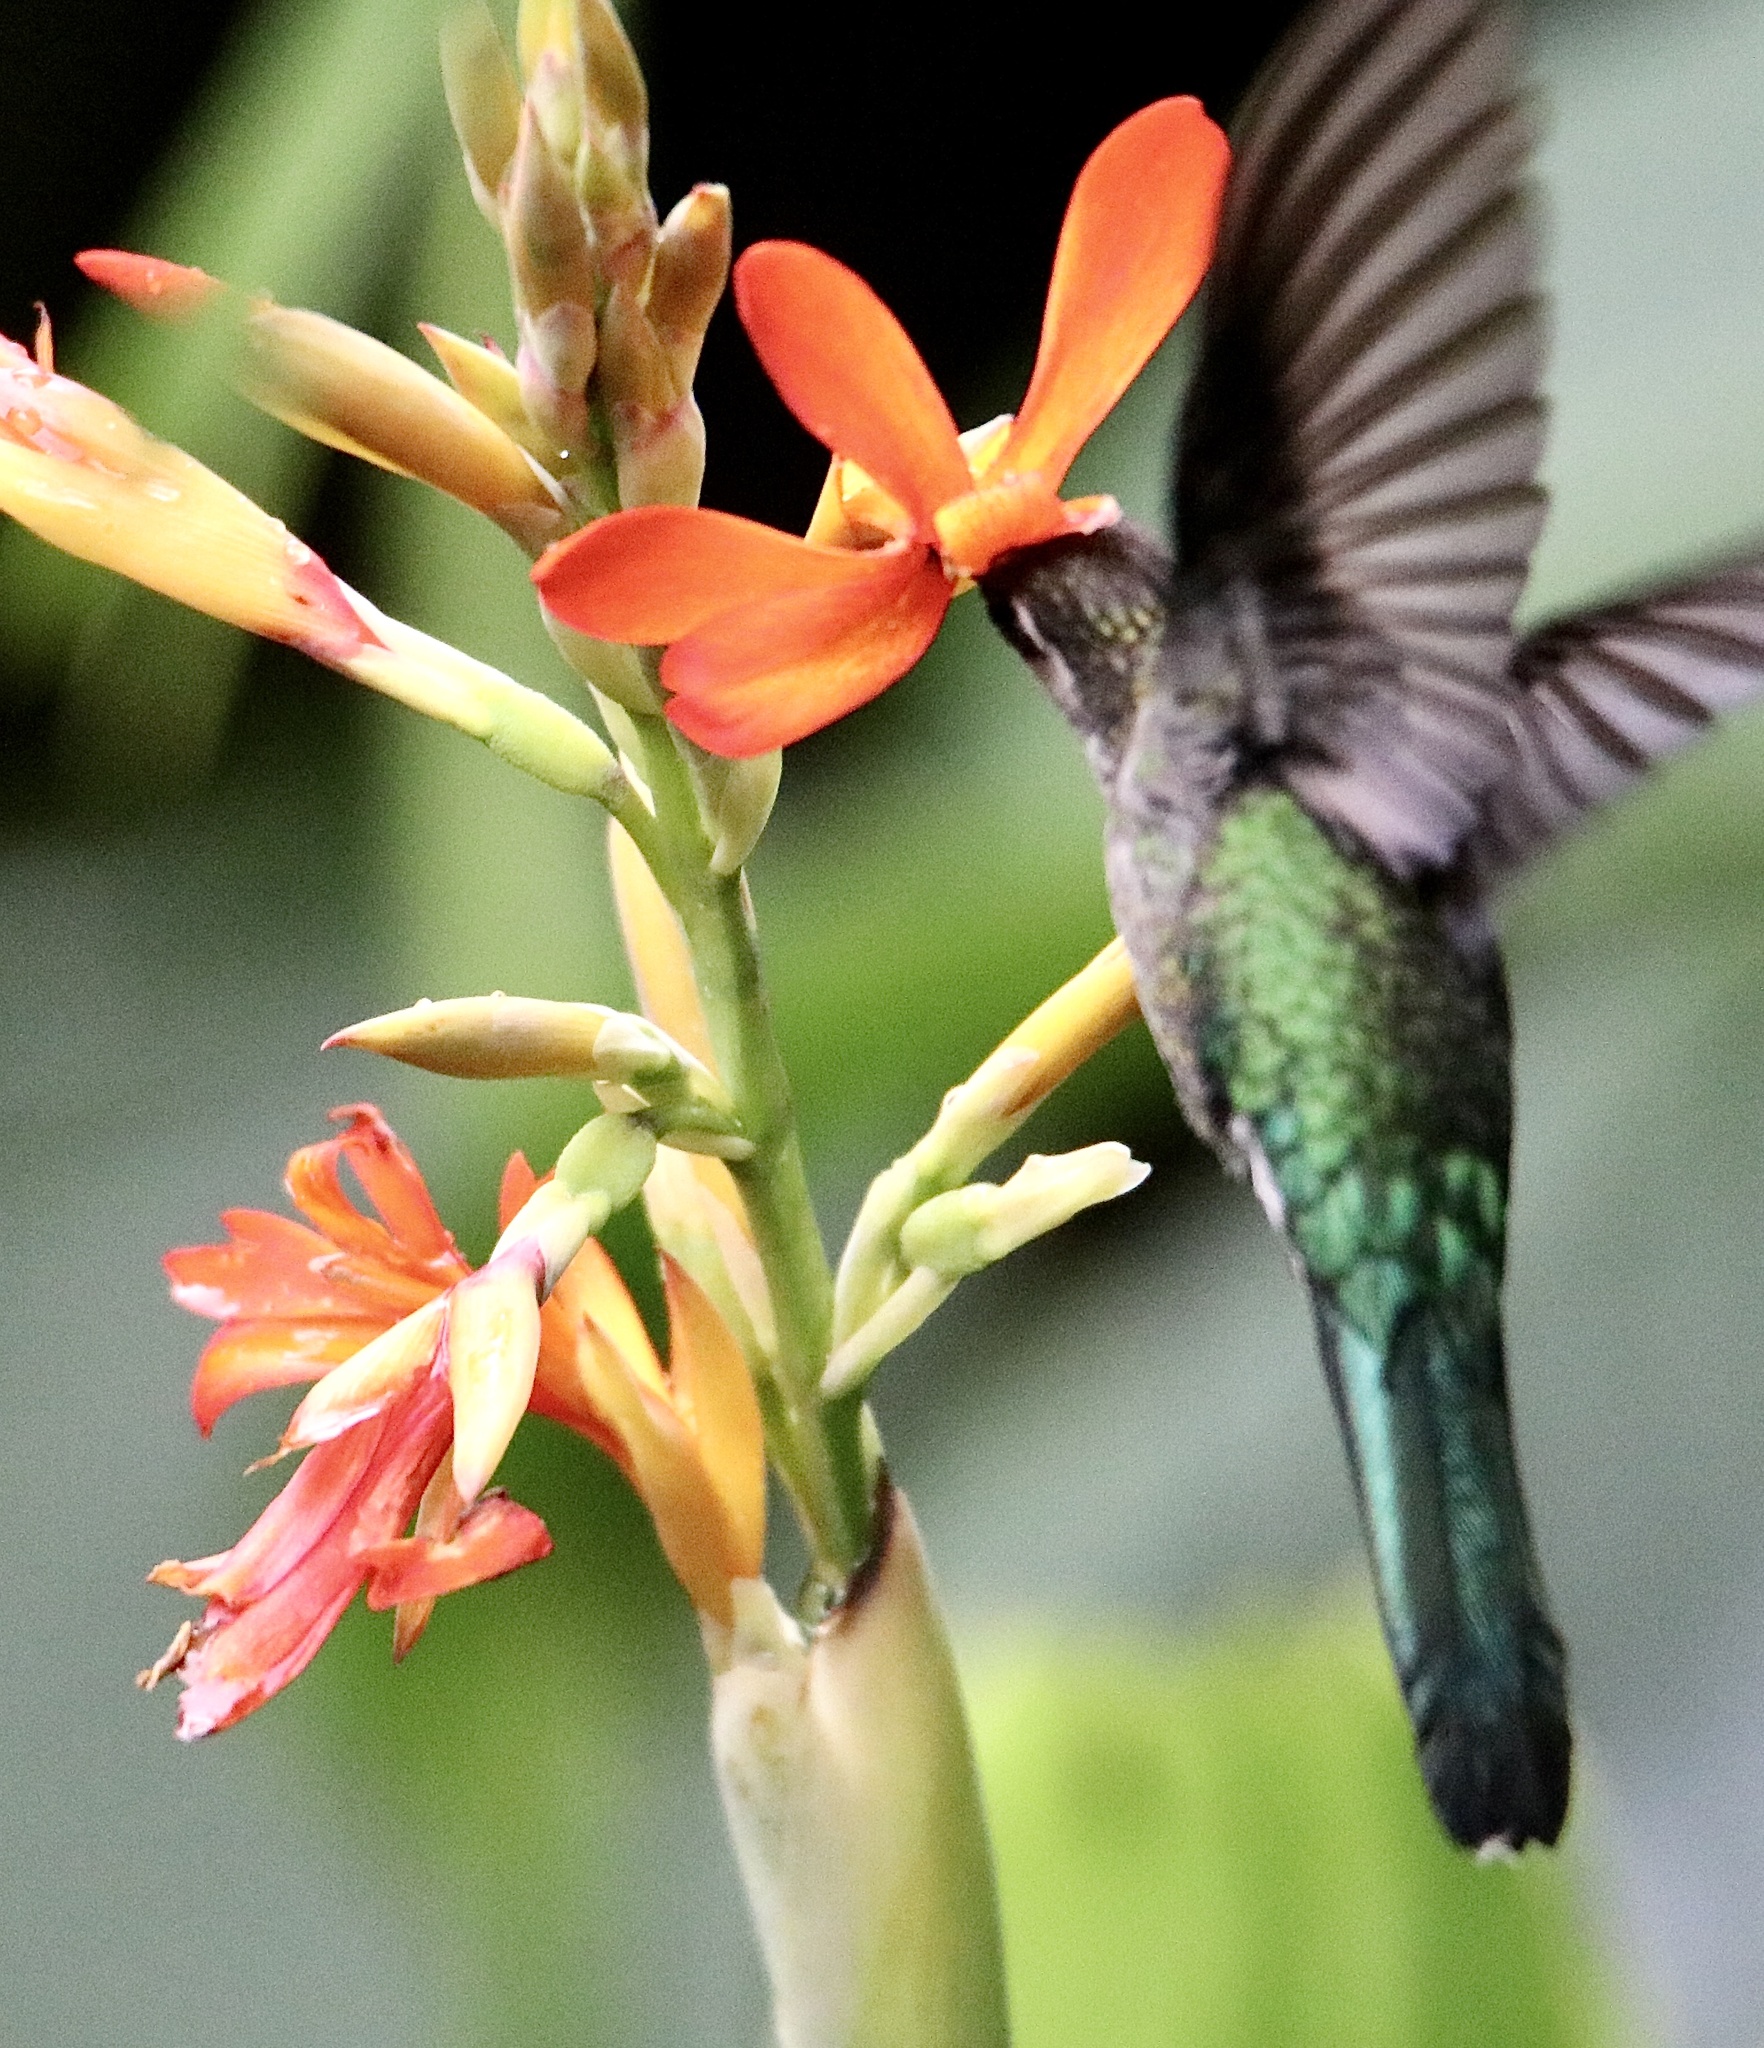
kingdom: Animalia
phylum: Chordata
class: Aves
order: Apodiformes
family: Trochilidae
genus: Phaethornis
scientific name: Phaethornis guy
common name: Green hermit
